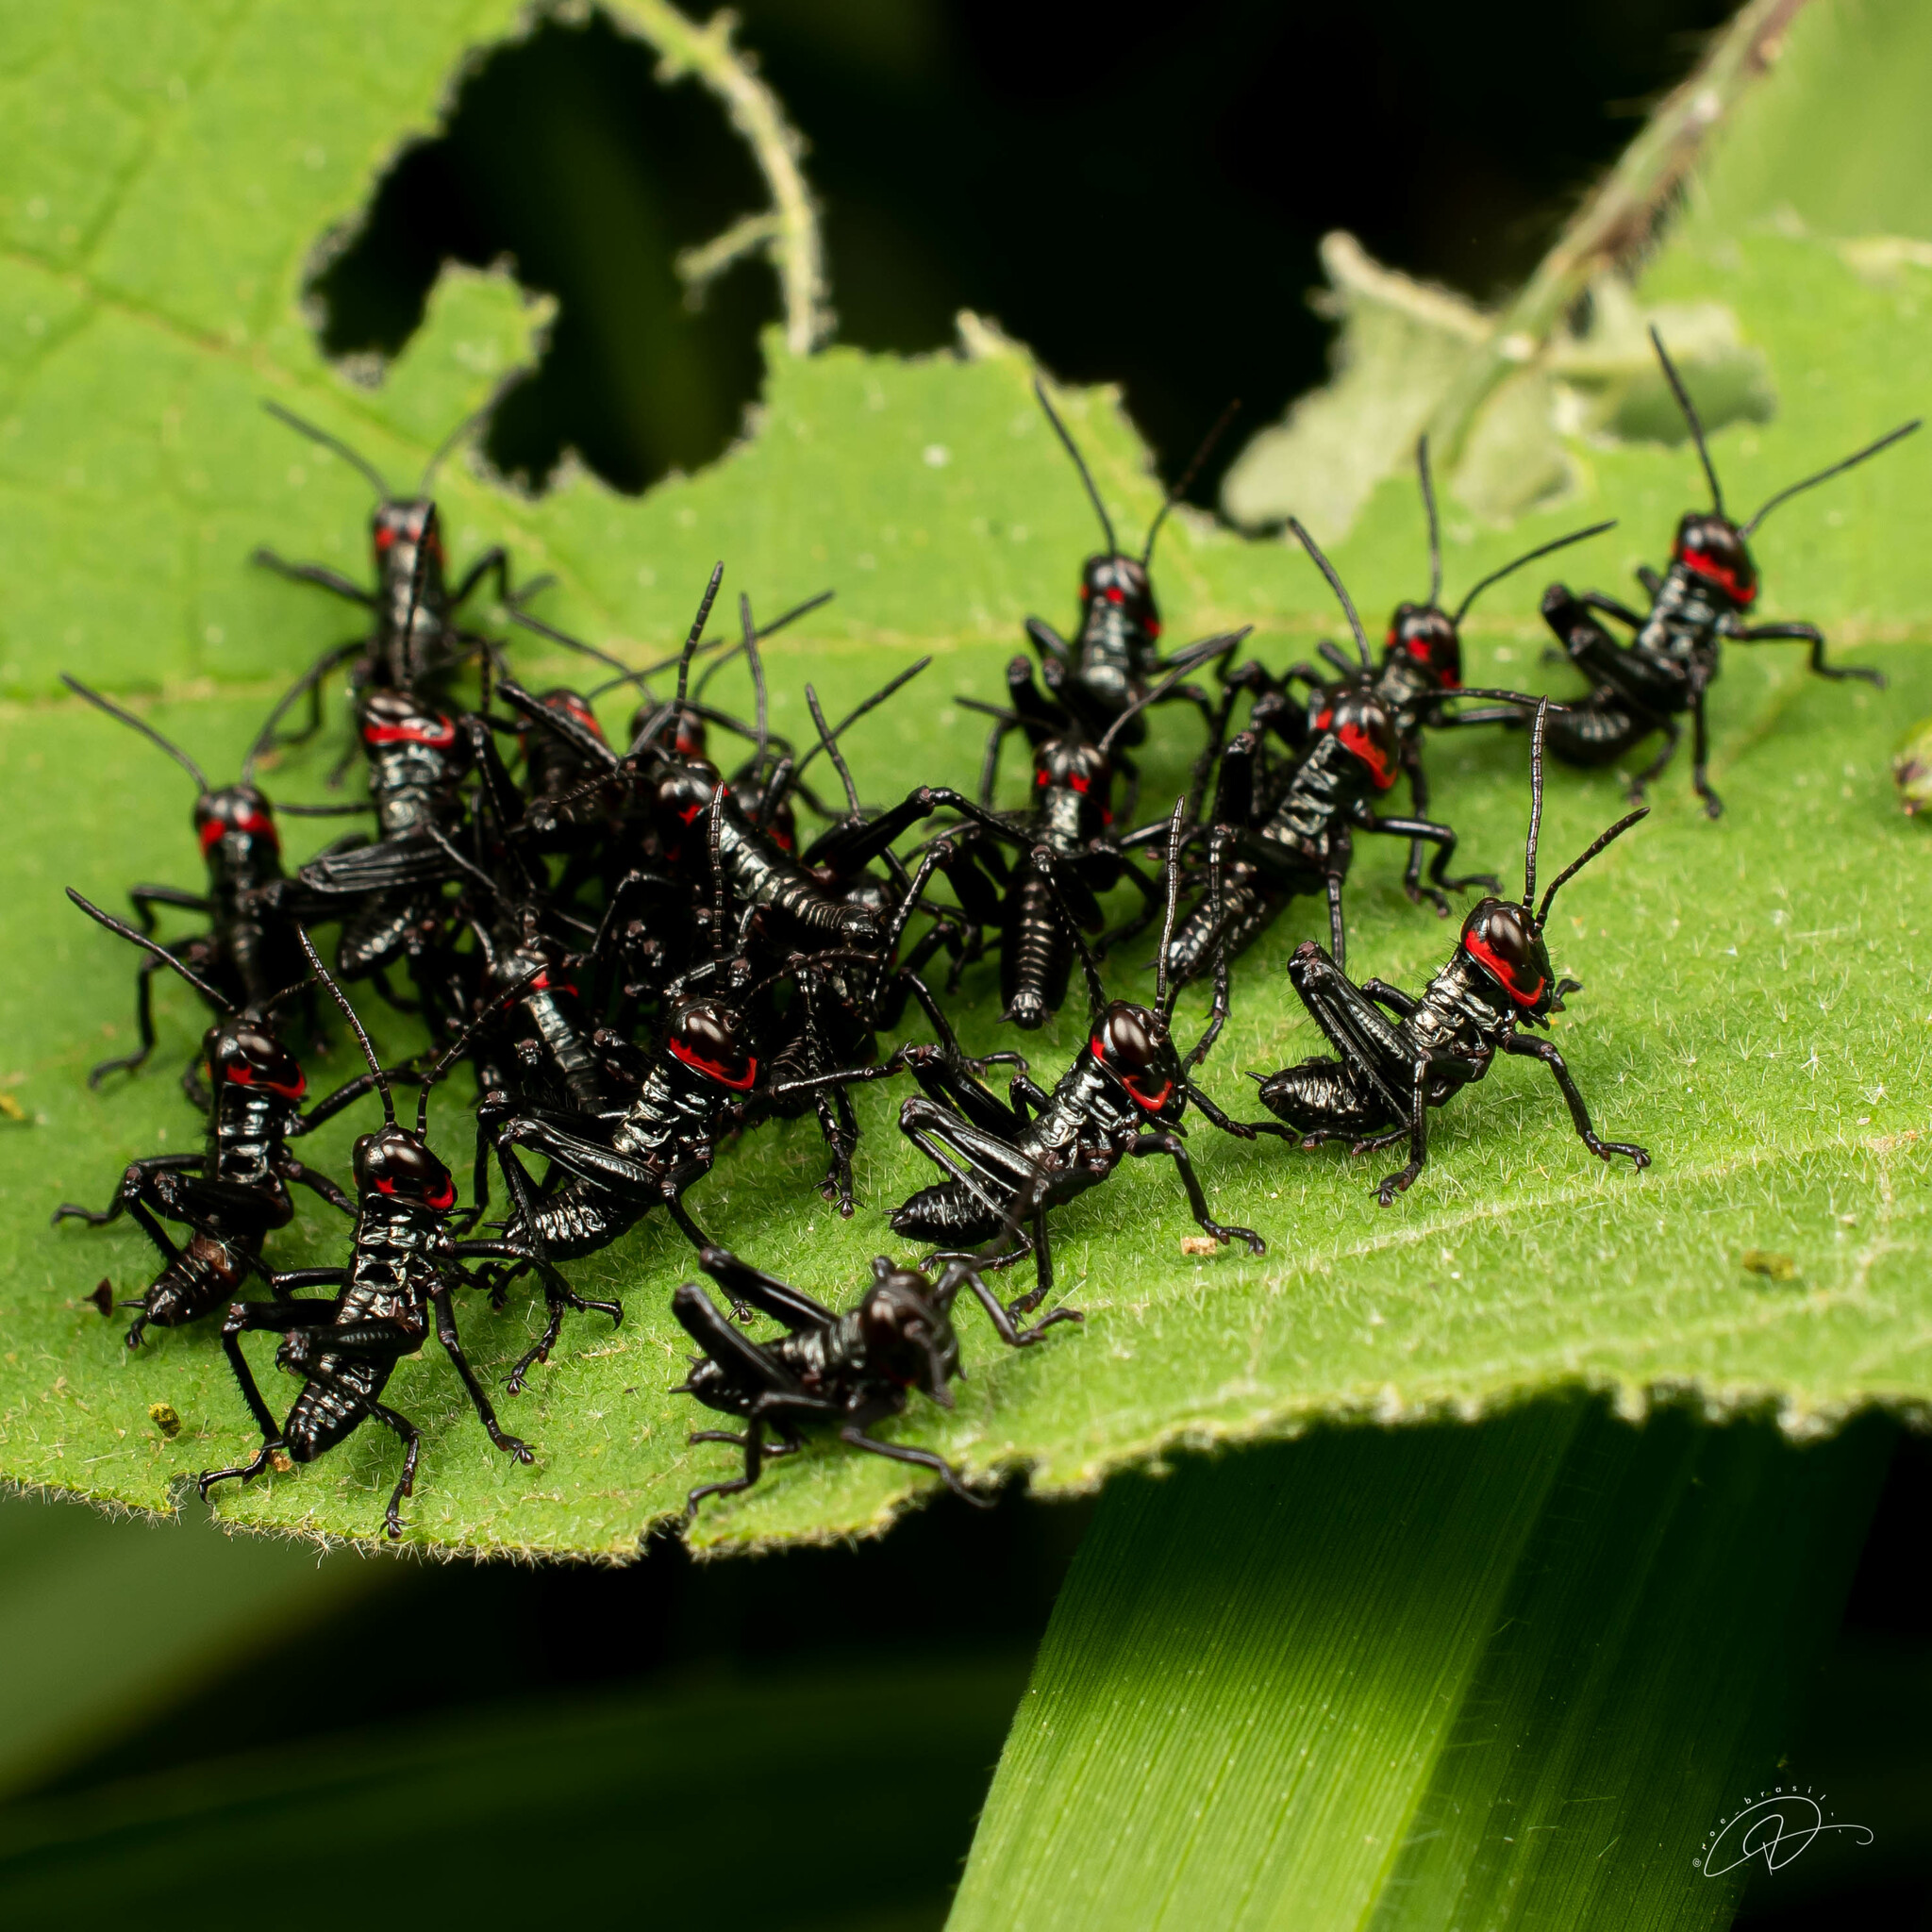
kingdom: Animalia
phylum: Arthropoda
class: Insecta
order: Orthoptera
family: Romaleidae
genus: Chromacris
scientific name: Chromacris speciosa
